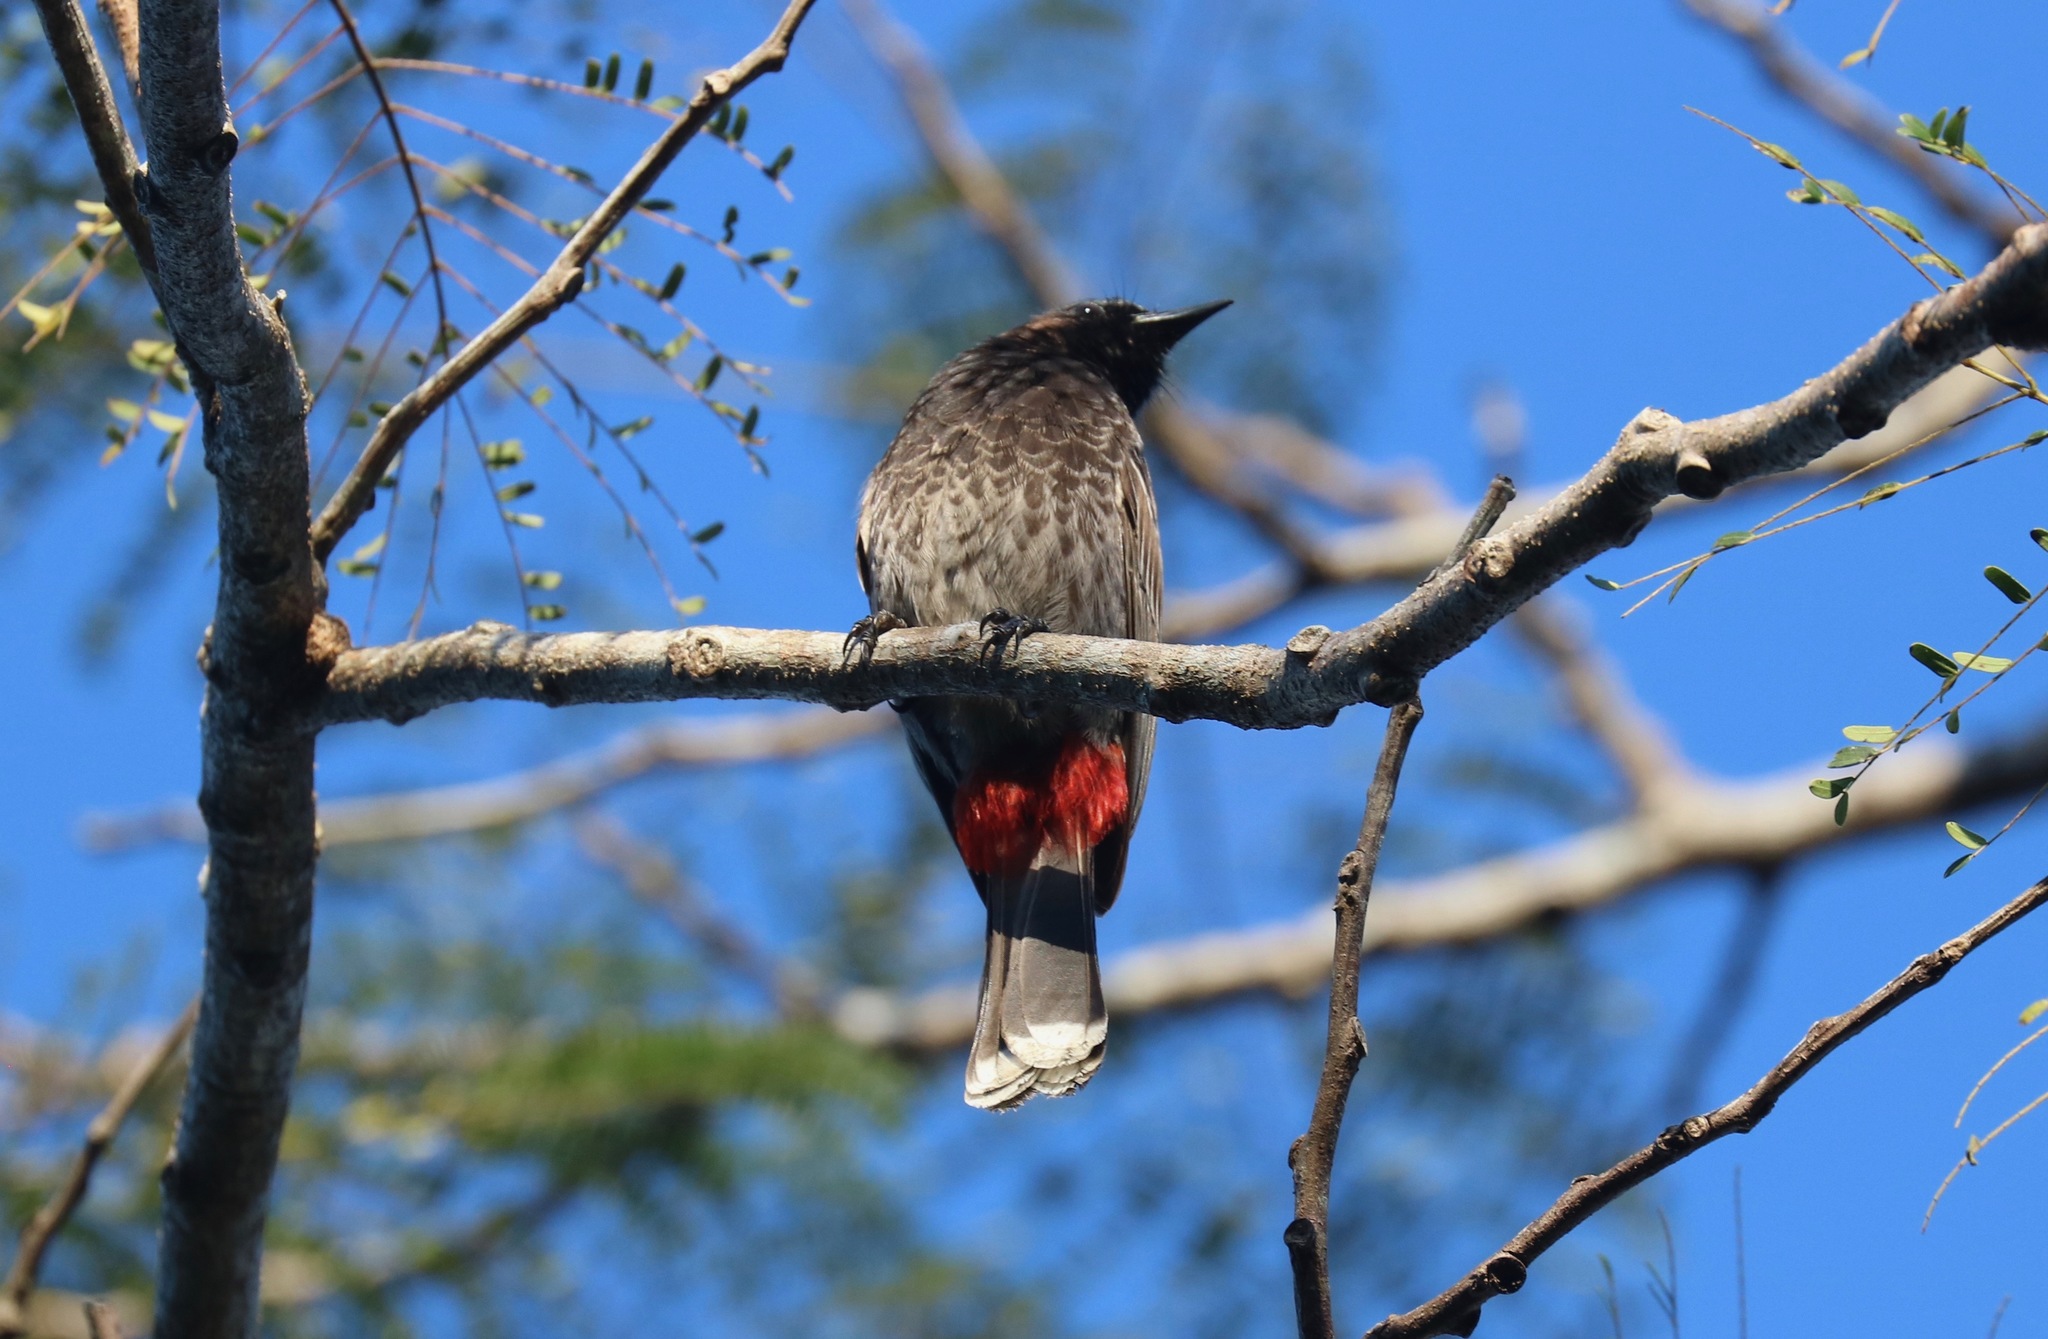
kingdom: Animalia
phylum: Chordata
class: Aves
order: Passeriformes
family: Pycnonotidae
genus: Pycnonotus
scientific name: Pycnonotus cafer
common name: Red-vented bulbul
